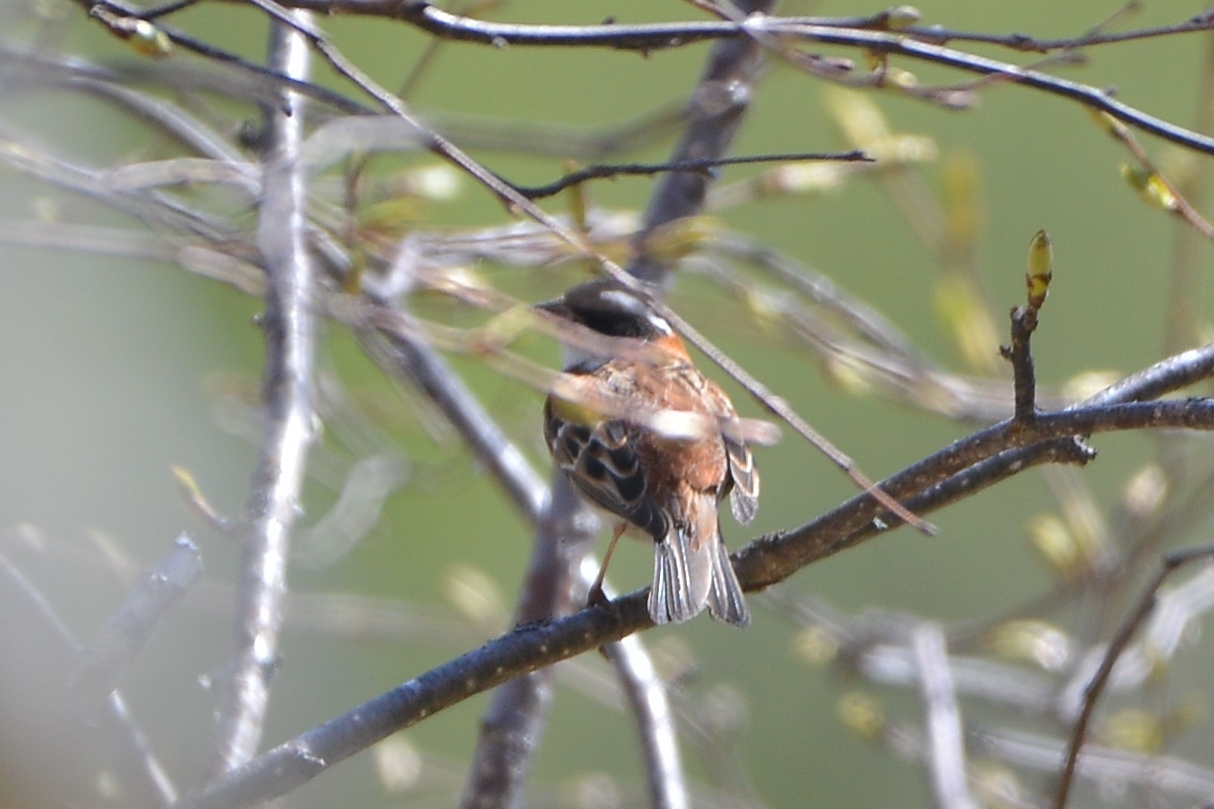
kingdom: Animalia
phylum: Chordata
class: Aves
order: Passeriformes
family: Emberizidae
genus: Emberiza
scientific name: Emberiza rustica
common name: Rustic bunting
